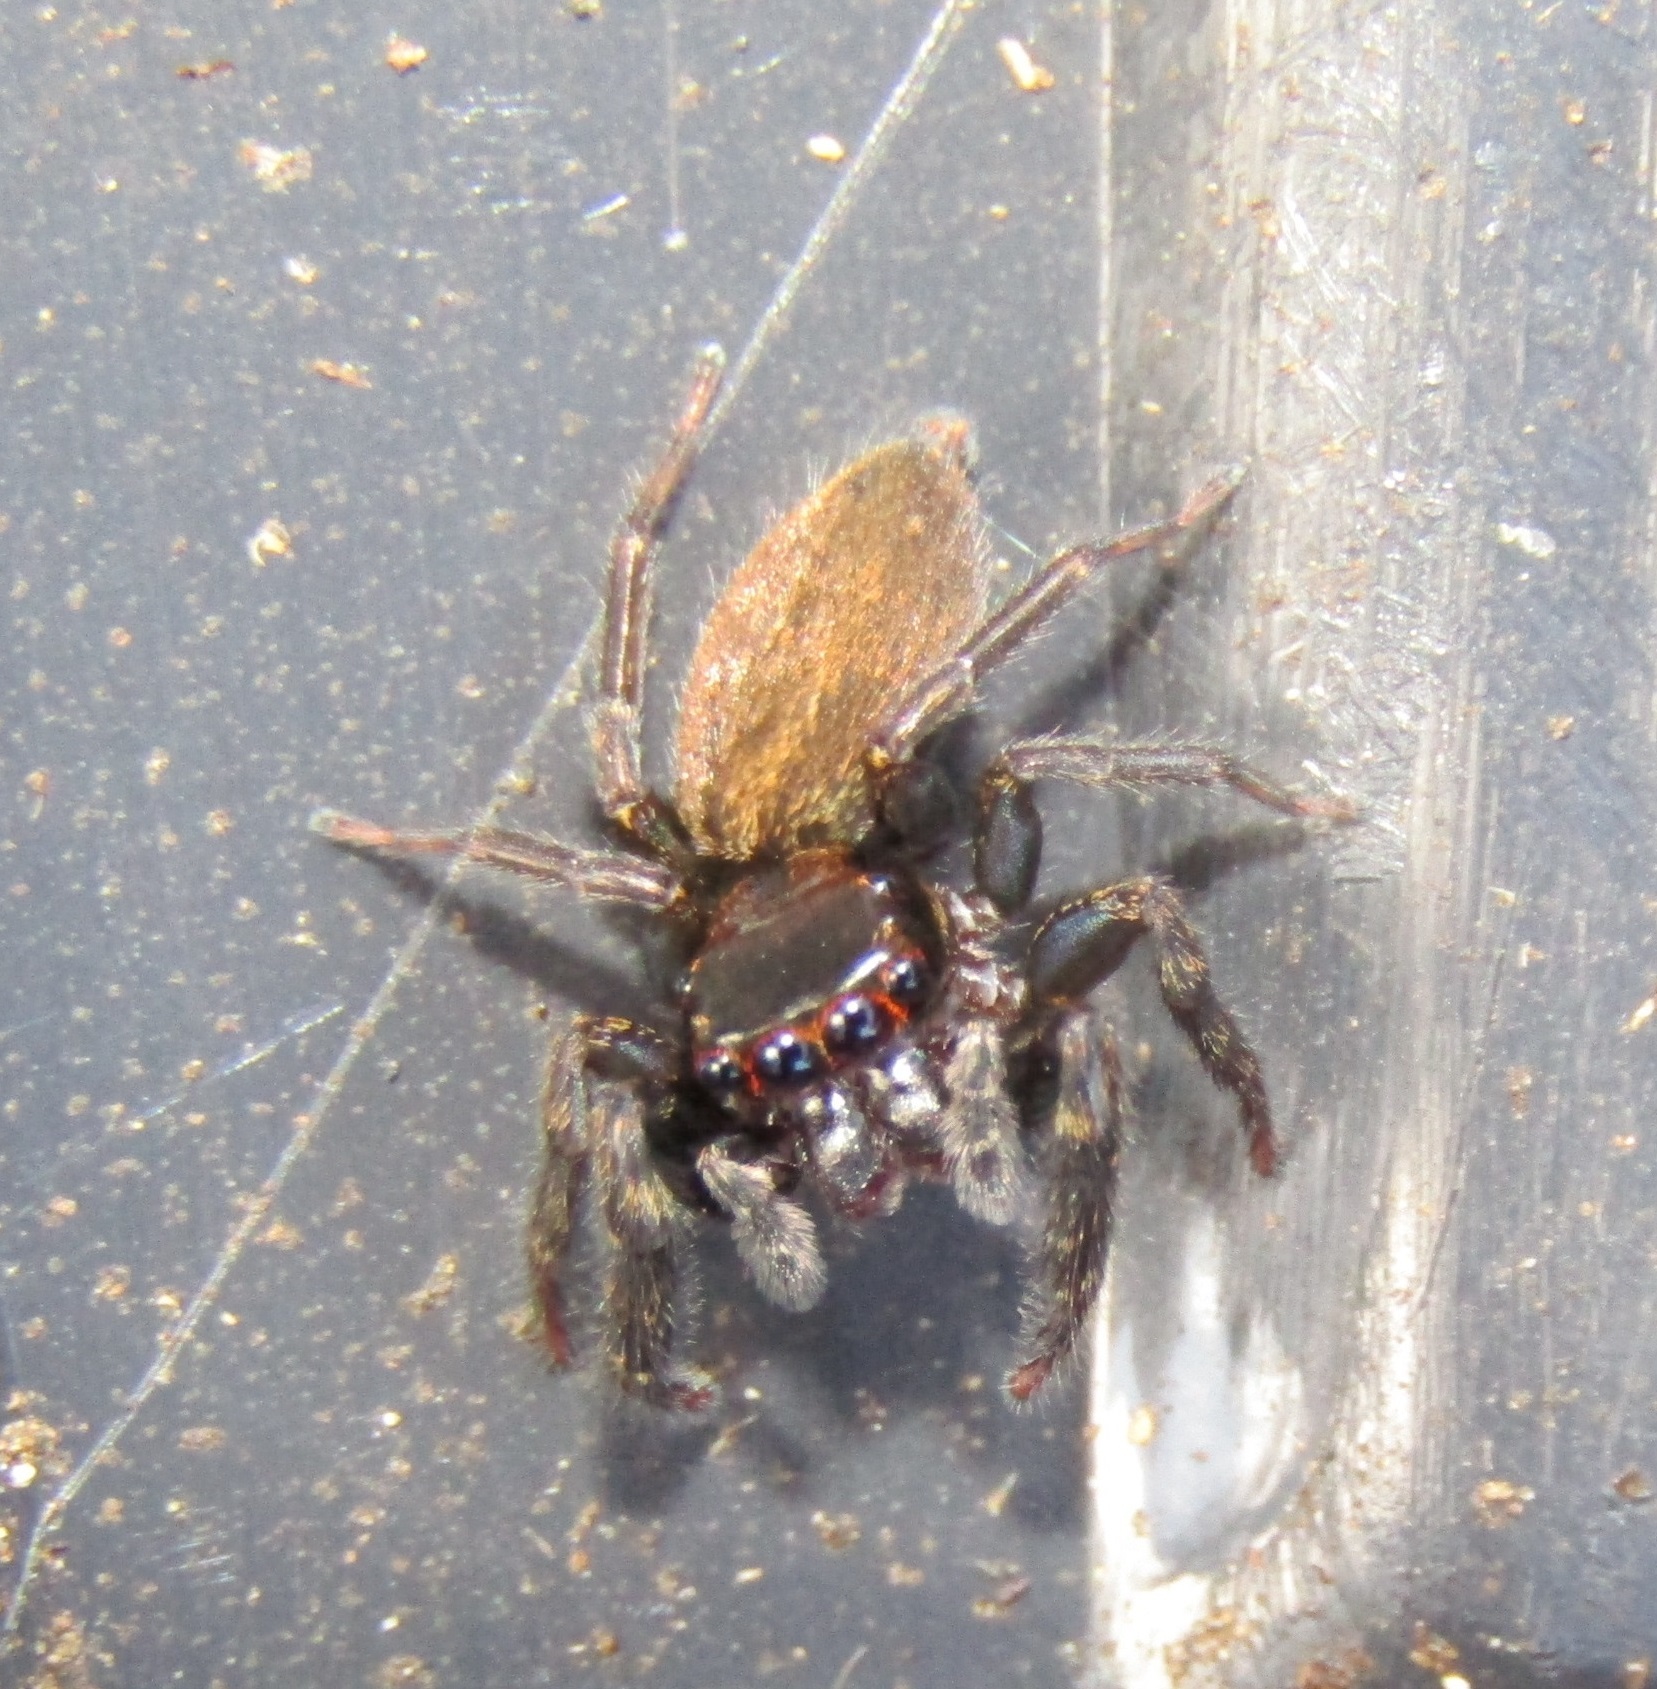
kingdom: Animalia
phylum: Arthropoda
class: Arachnida
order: Araneae
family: Salticidae
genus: Trite
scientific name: Trite auricoma
